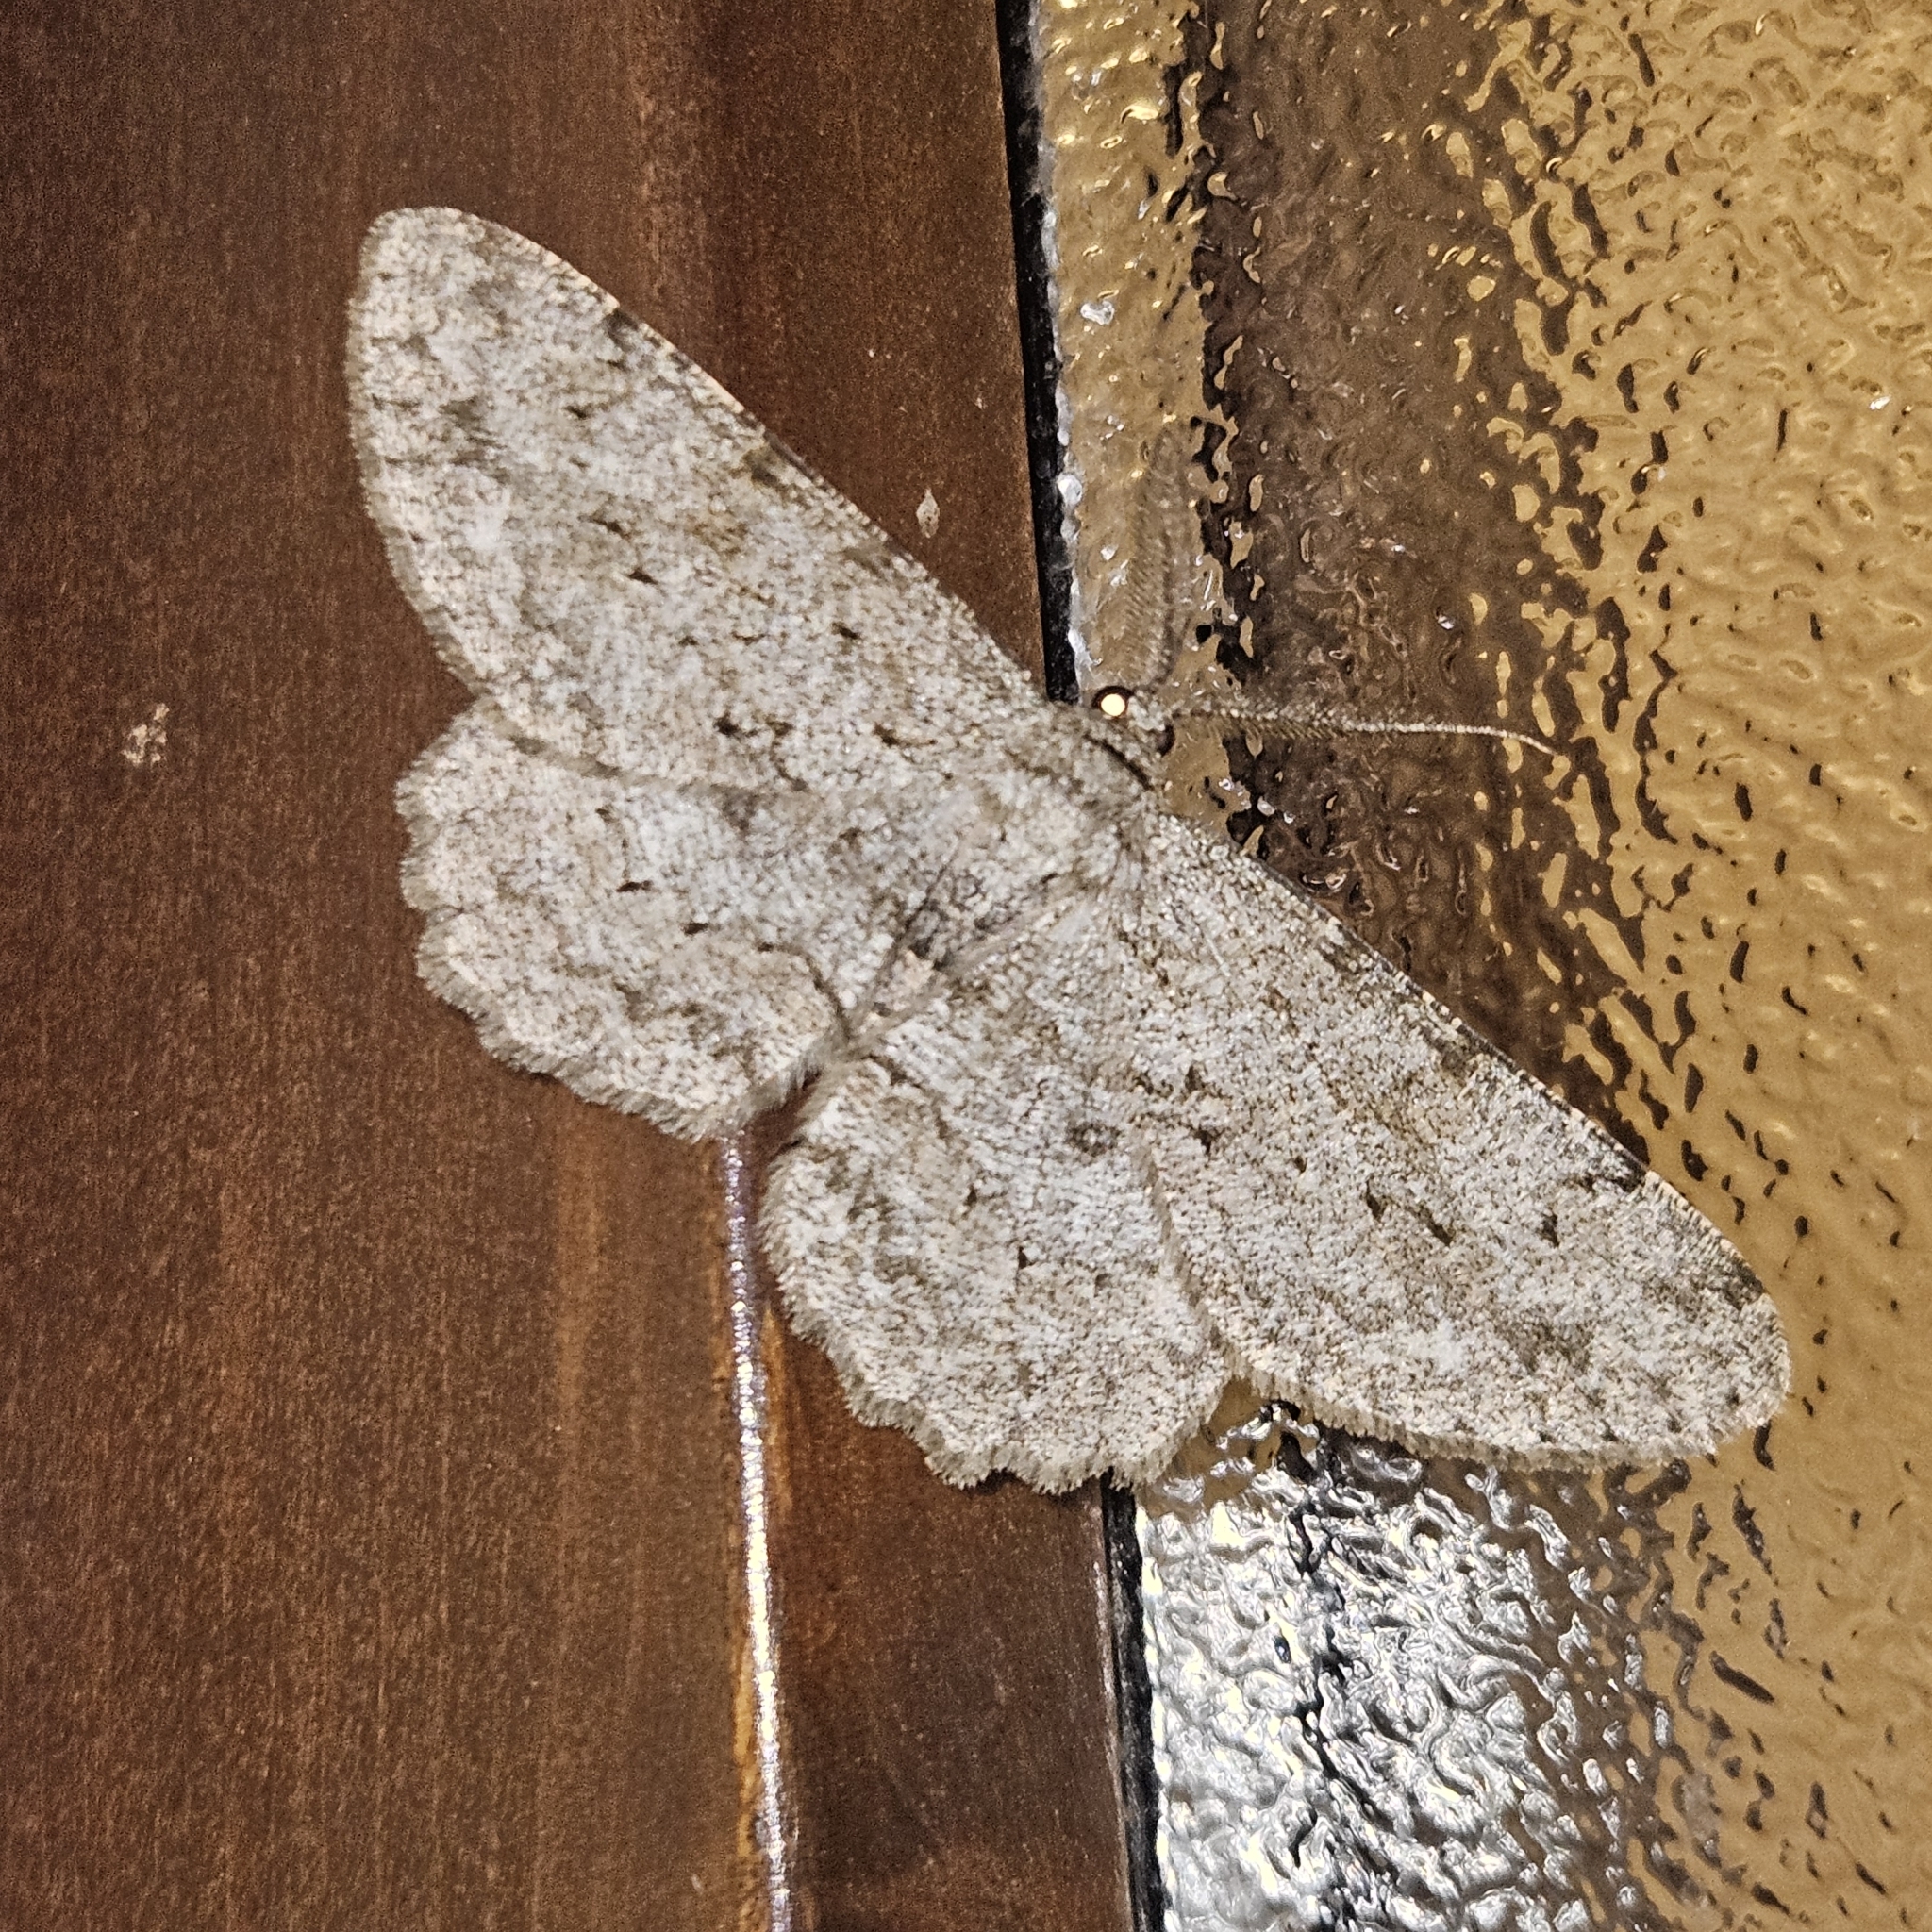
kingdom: Animalia
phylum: Arthropoda
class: Insecta
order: Lepidoptera
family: Geometridae
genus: Hypomecis
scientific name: Hypomecis punctinalis
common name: Pale oak beauty
